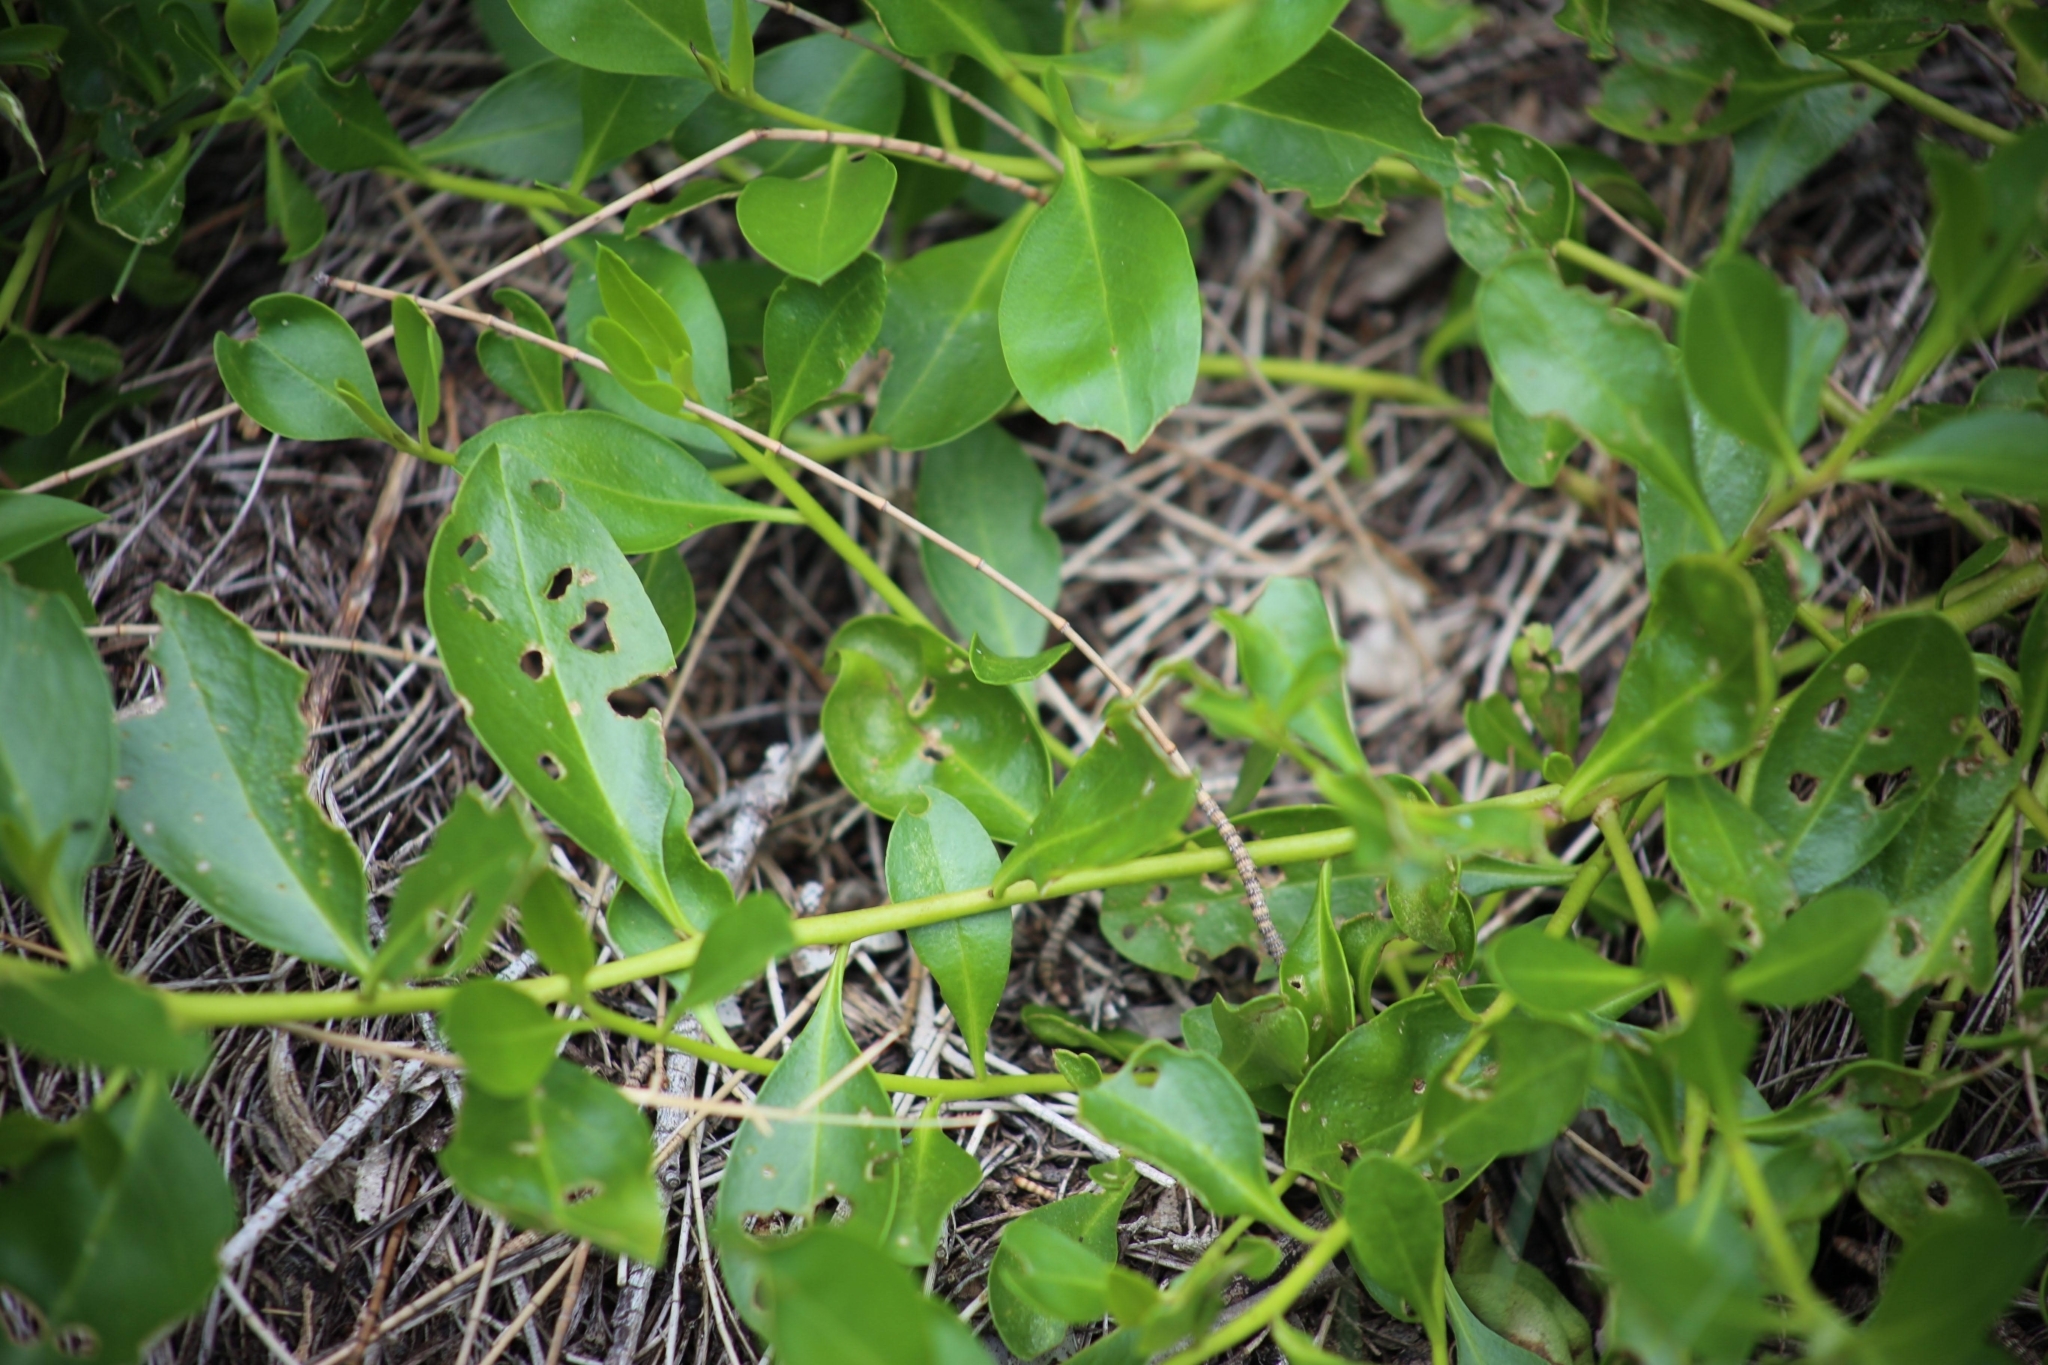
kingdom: Plantae
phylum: Tracheophyta
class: Magnoliopsida
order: Lamiales
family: Scrophulariaceae
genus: Myoporum
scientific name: Myoporum boninense
